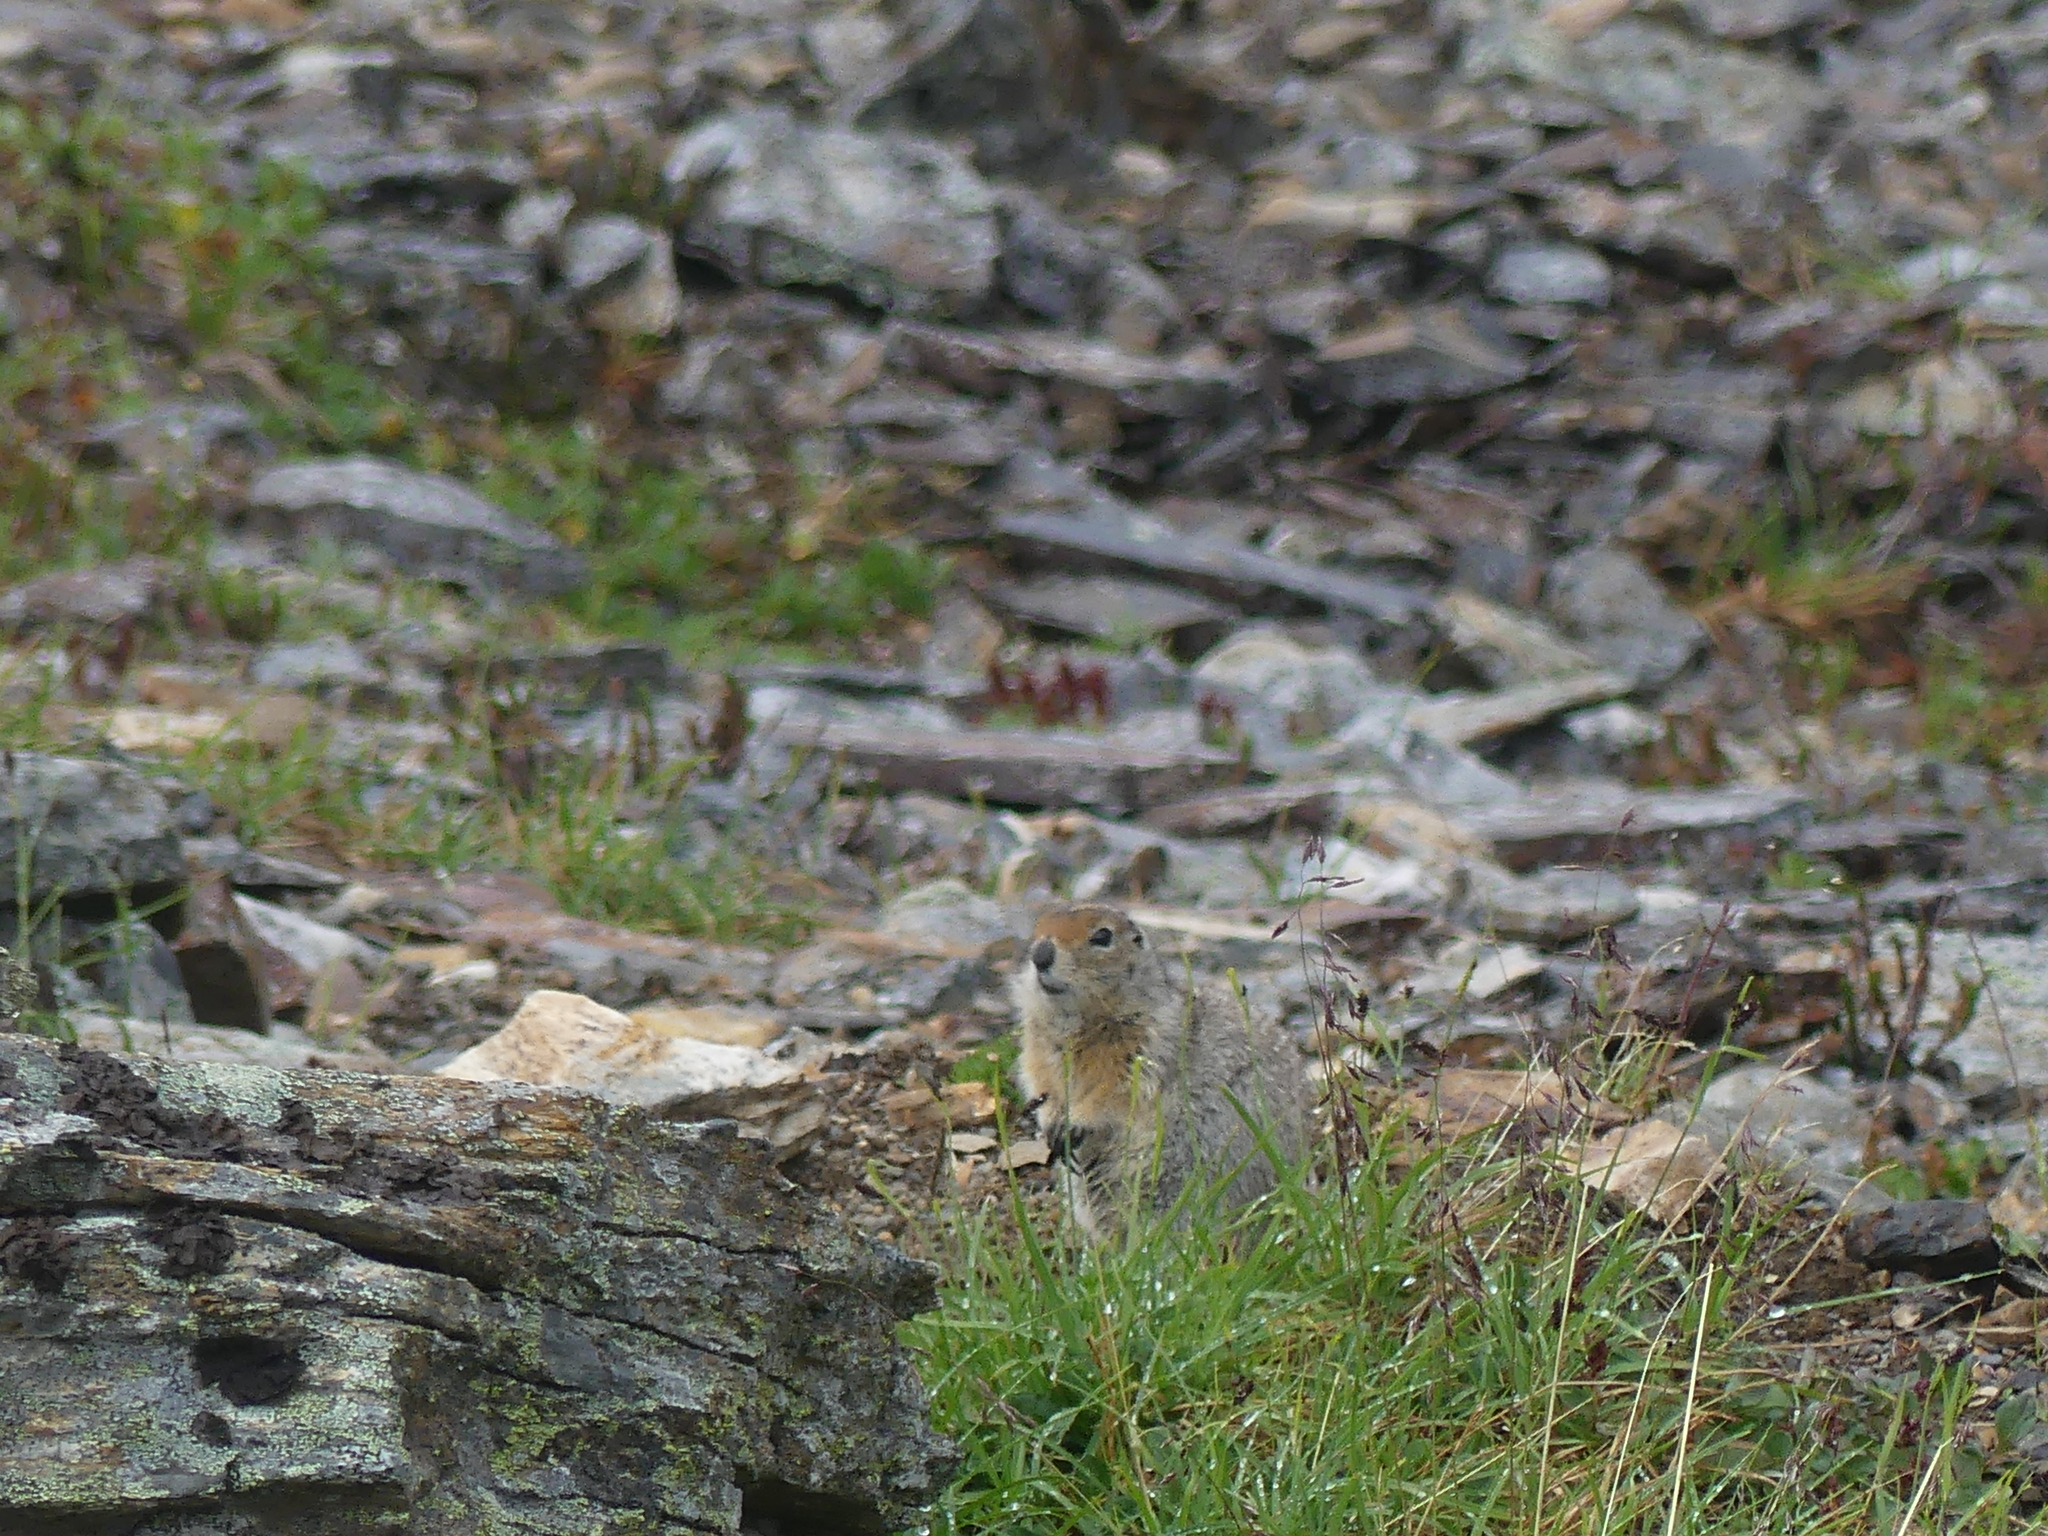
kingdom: Animalia
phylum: Chordata
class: Mammalia
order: Rodentia
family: Sciuridae
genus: Urocitellus
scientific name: Urocitellus parryii
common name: Arctic ground squirrel
